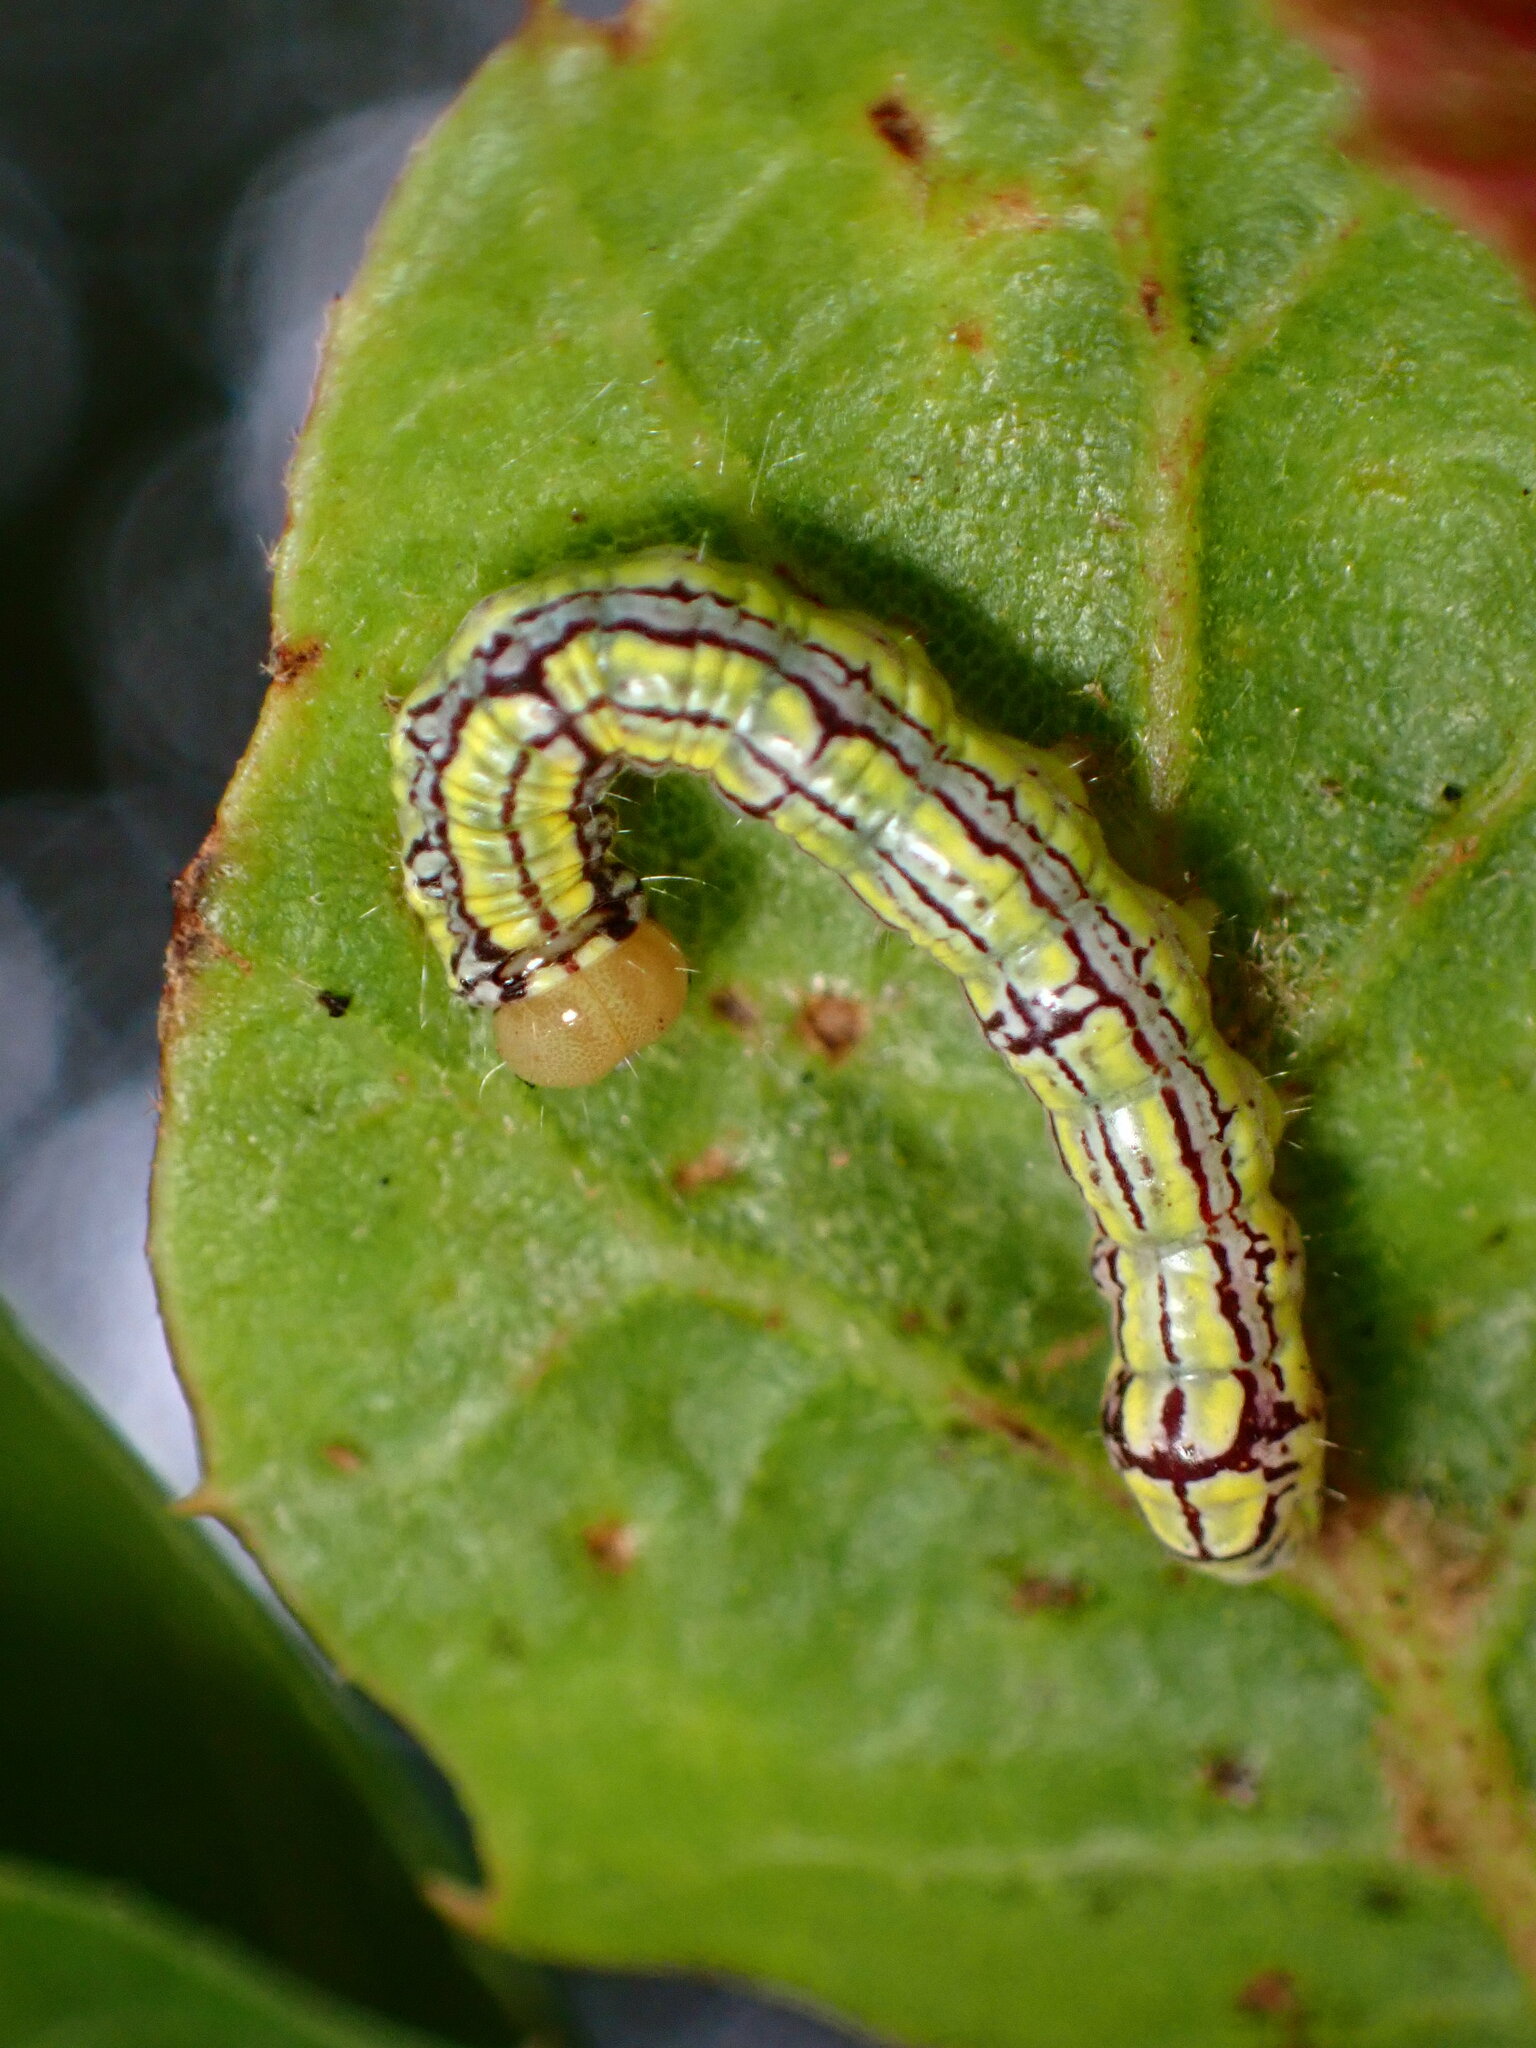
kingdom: Animalia
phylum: Arthropoda
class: Insecta
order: Lepidoptera
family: Notodontidae
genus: Phryganidia
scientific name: Phryganidia californica
